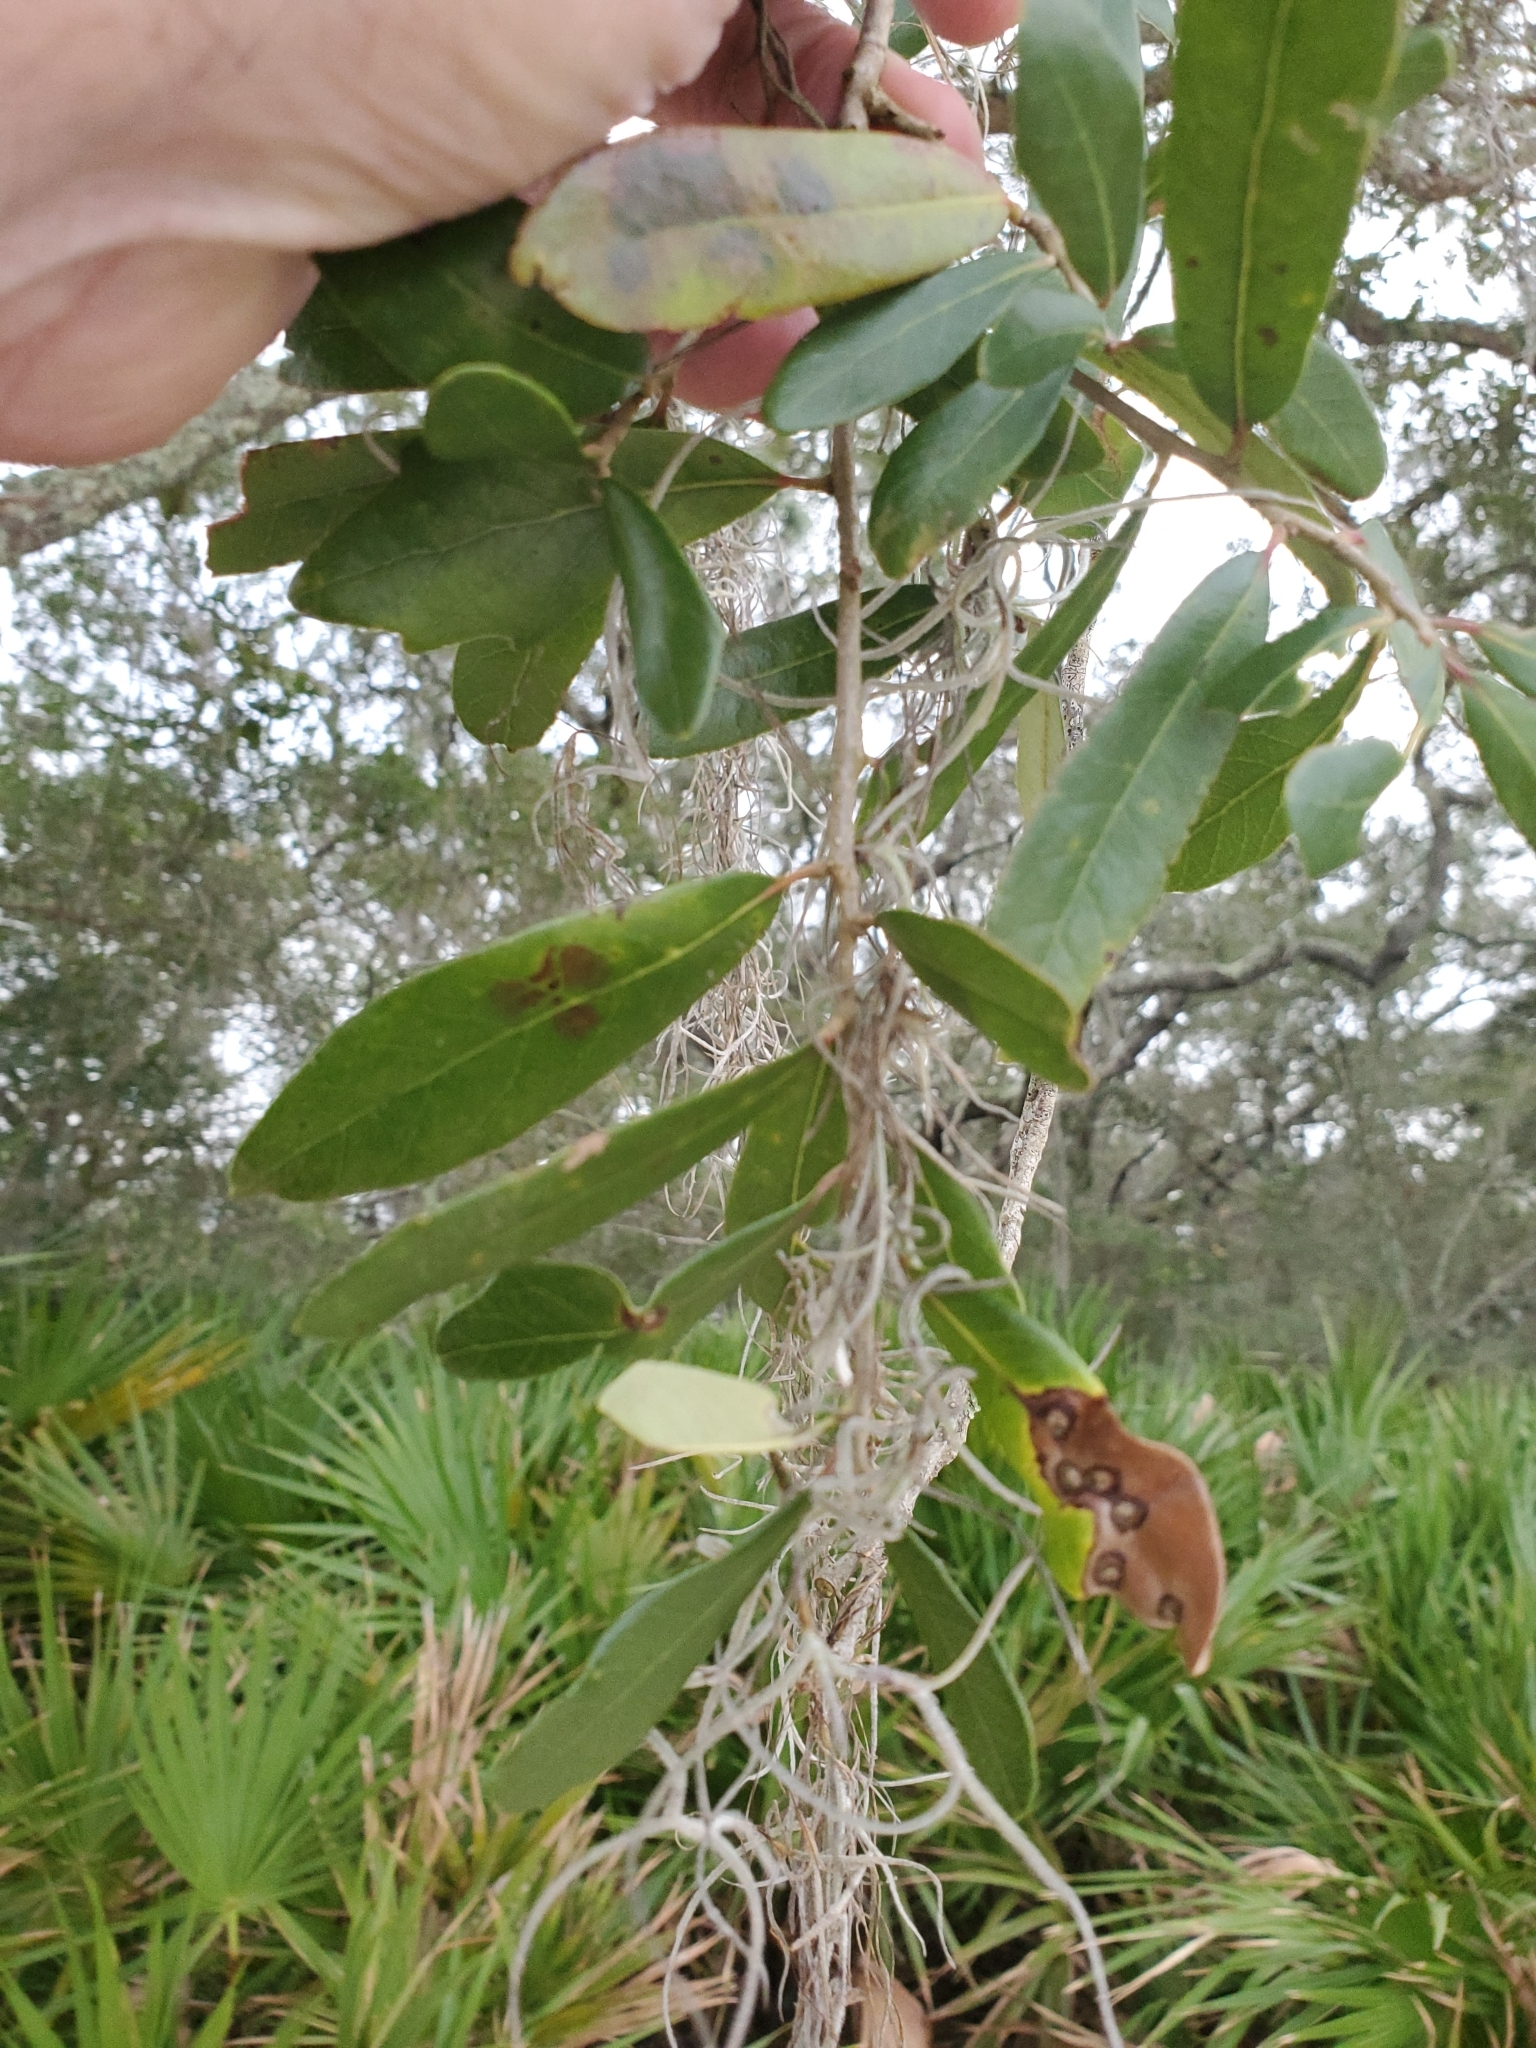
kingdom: Plantae
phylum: Tracheophyta
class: Magnoliopsida
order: Fagales
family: Fagaceae
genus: Quercus
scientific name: Quercus virginiana
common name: Southern live oak
